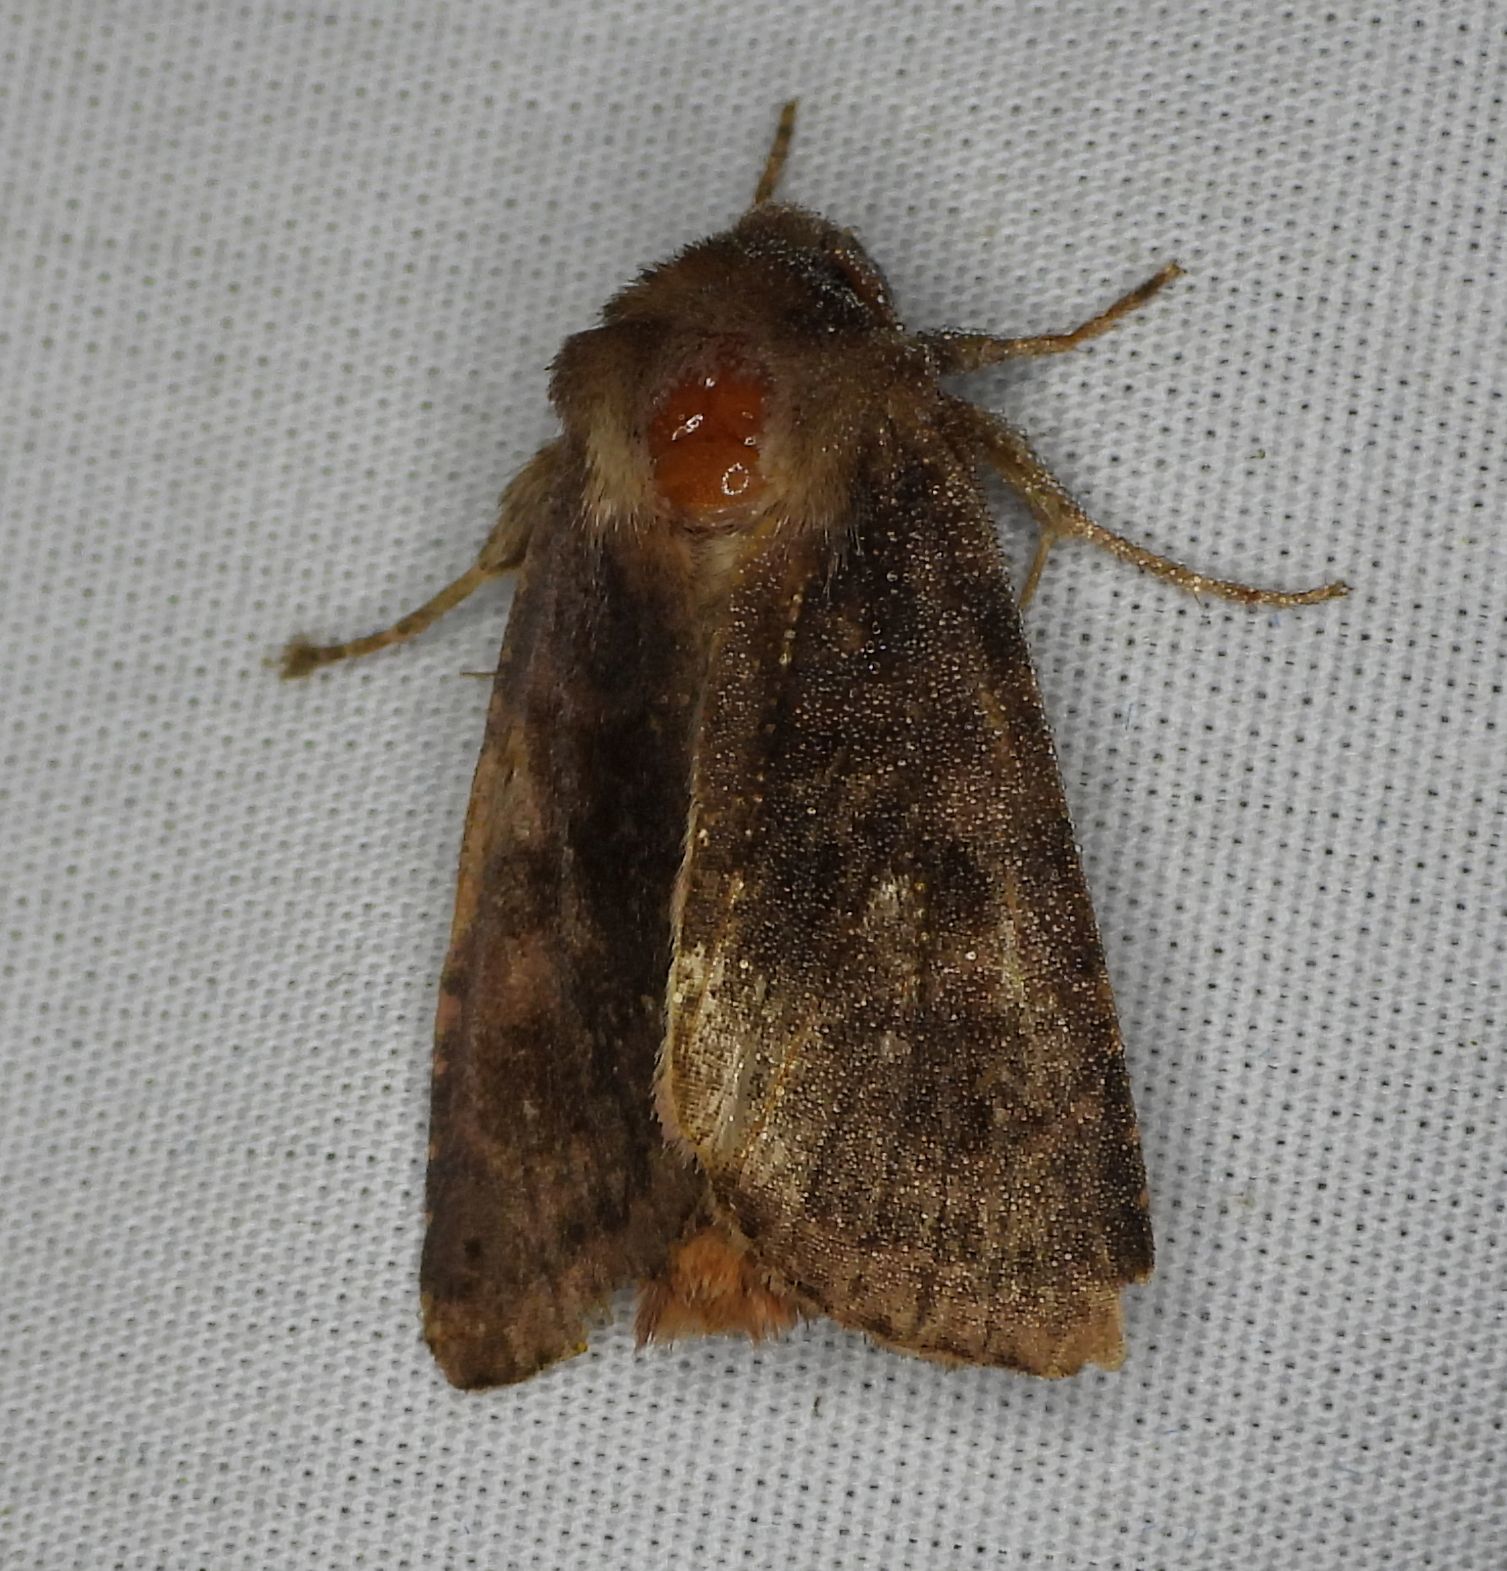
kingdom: Animalia
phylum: Arthropoda
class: Insecta
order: Lepidoptera
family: Noctuidae
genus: Nephelodes
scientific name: Nephelodes minians
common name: Bronzed cutworm
